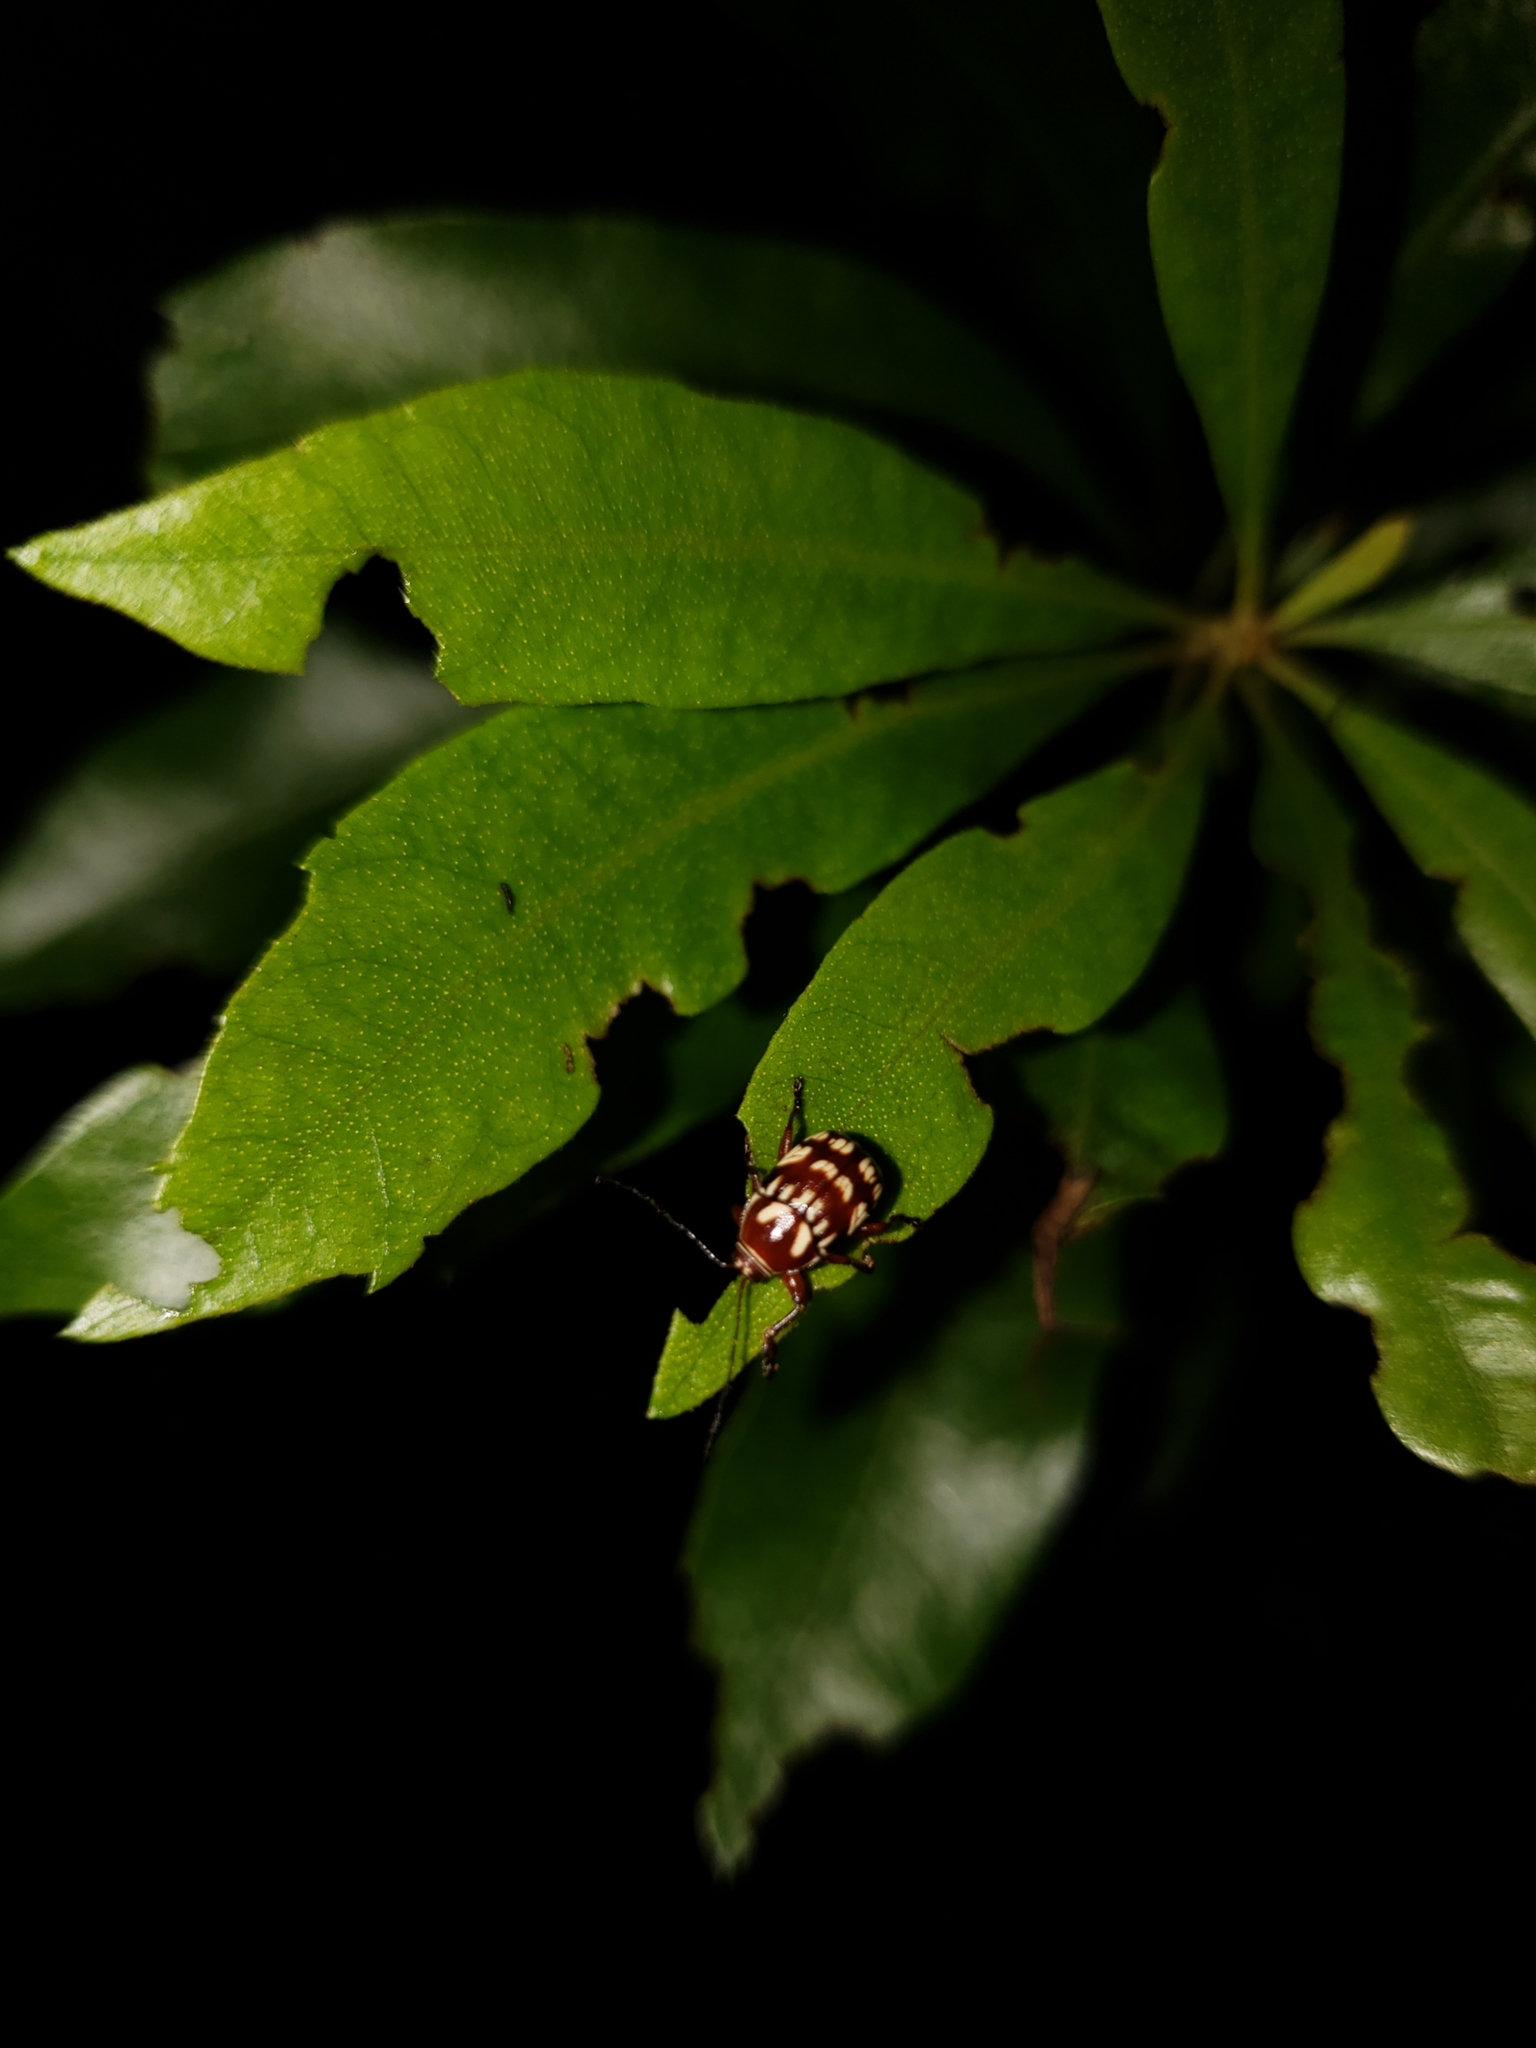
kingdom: Plantae
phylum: Tracheophyta
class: Magnoliopsida
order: Fagales
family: Myricaceae
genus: Morella
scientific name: Morella cerifera
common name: Wax myrtle
